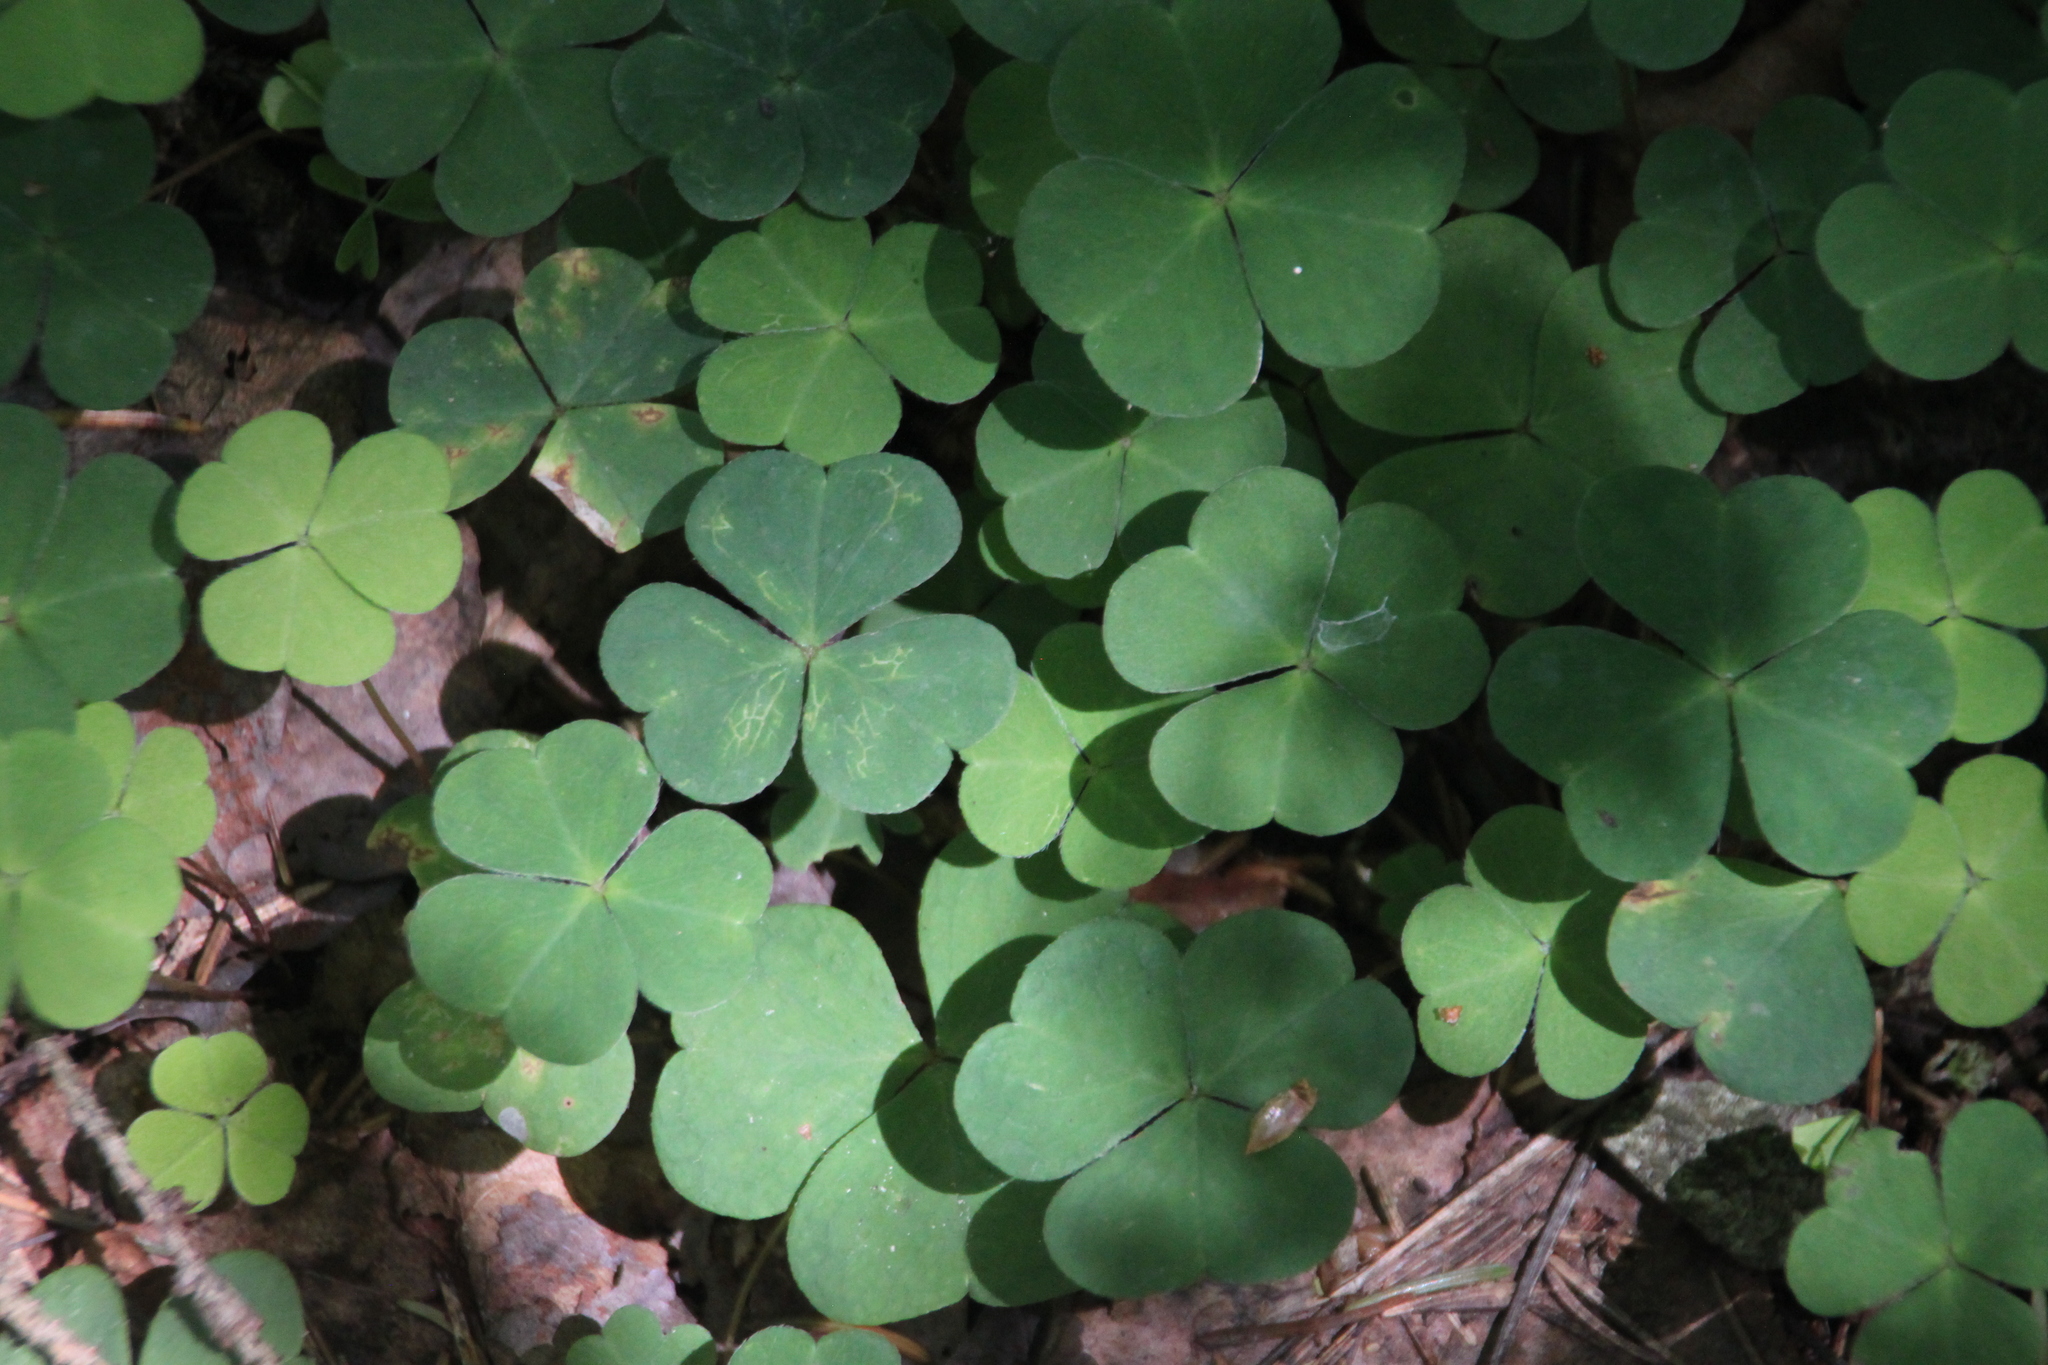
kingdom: Plantae
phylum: Tracheophyta
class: Magnoliopsida
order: Oxalidales
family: Oxalidaceae
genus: Oxalis
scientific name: Oxalis acetosella
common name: Wood-sorrel
